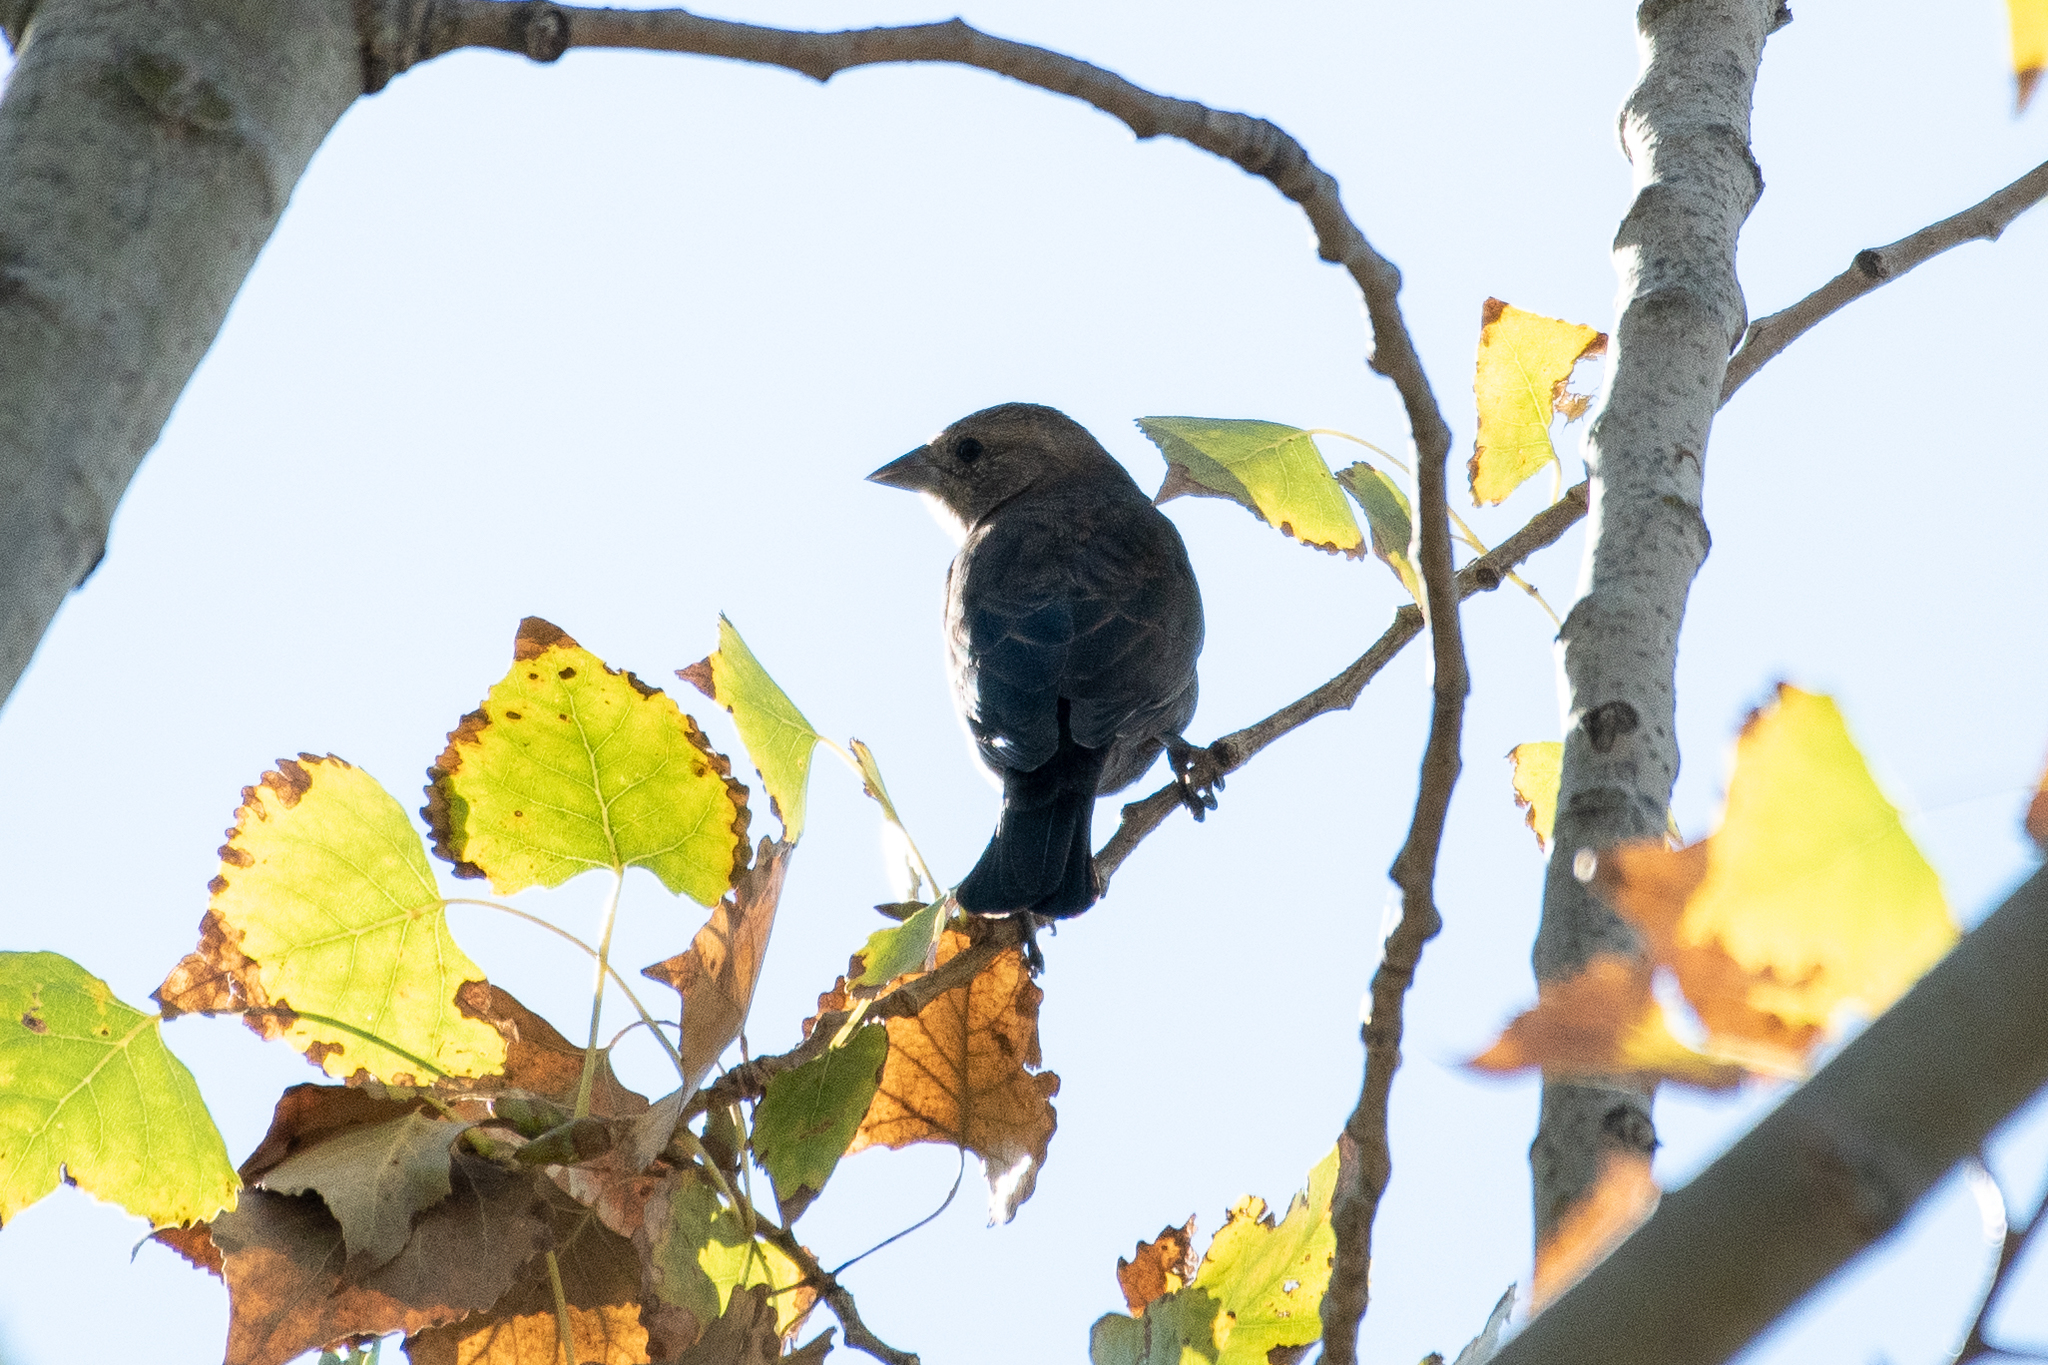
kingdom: Animalia
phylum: Chordata
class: Aves
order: Passeriformes
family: Passeridae
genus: Passer
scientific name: Passer domesticus
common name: House sparrow
